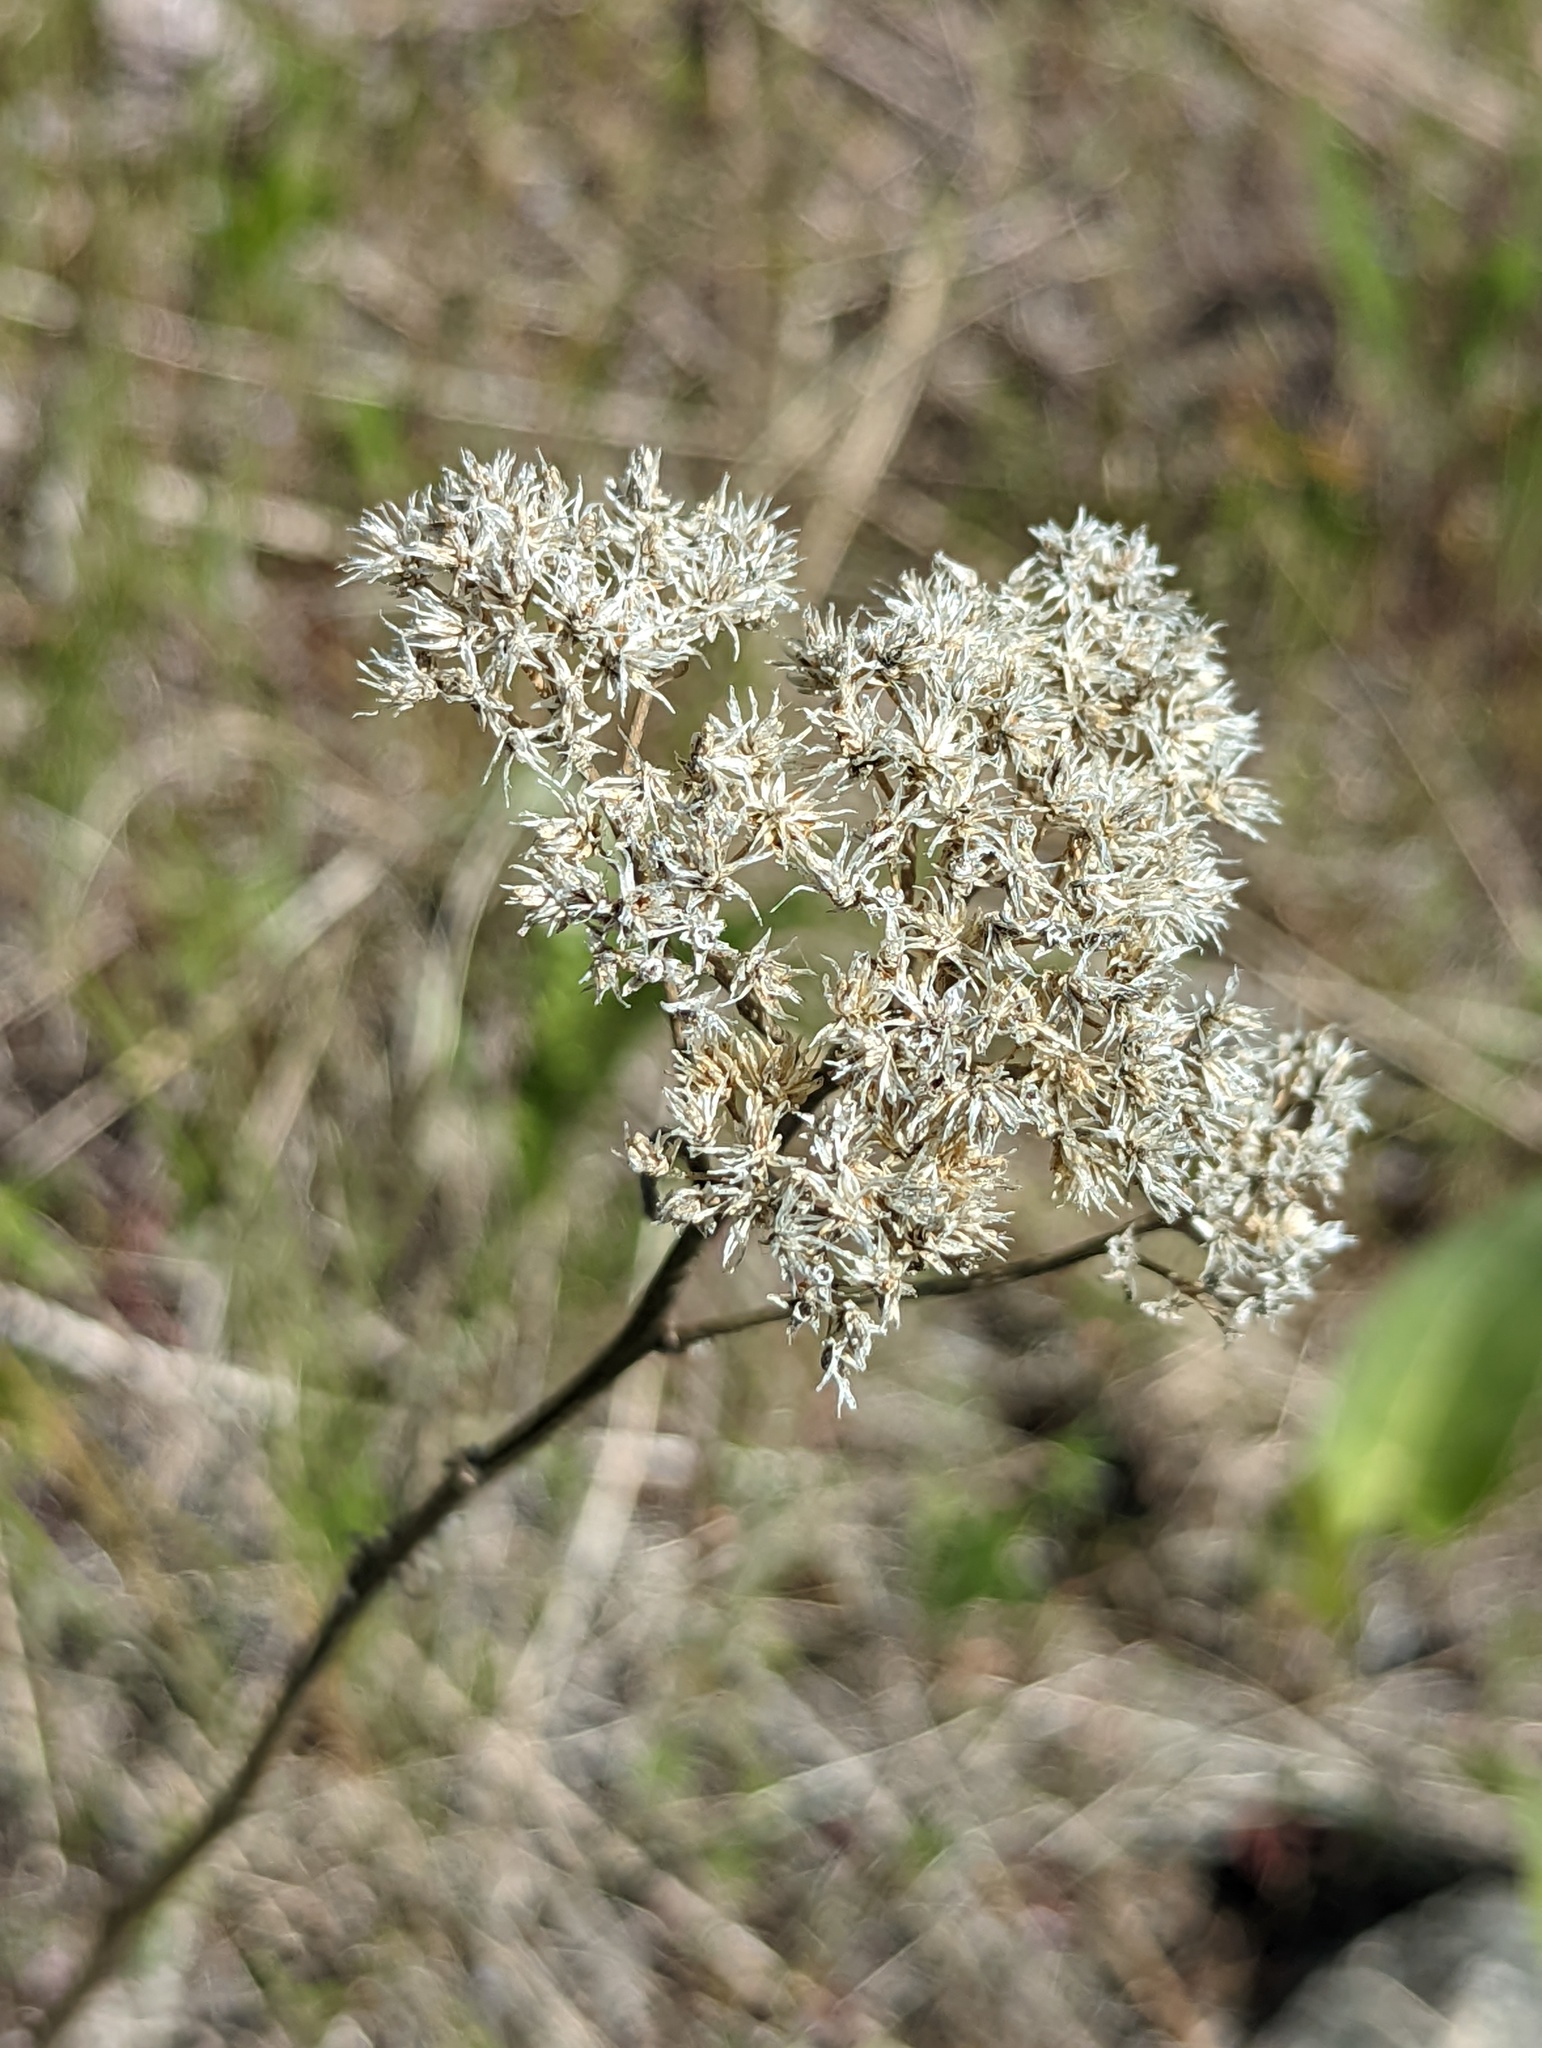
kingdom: Plantae
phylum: Tracheophyta
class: Magnoliopsida
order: Asterales
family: Asteraceae
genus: Achillea
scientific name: Achillea millefolium
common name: Yarrow
